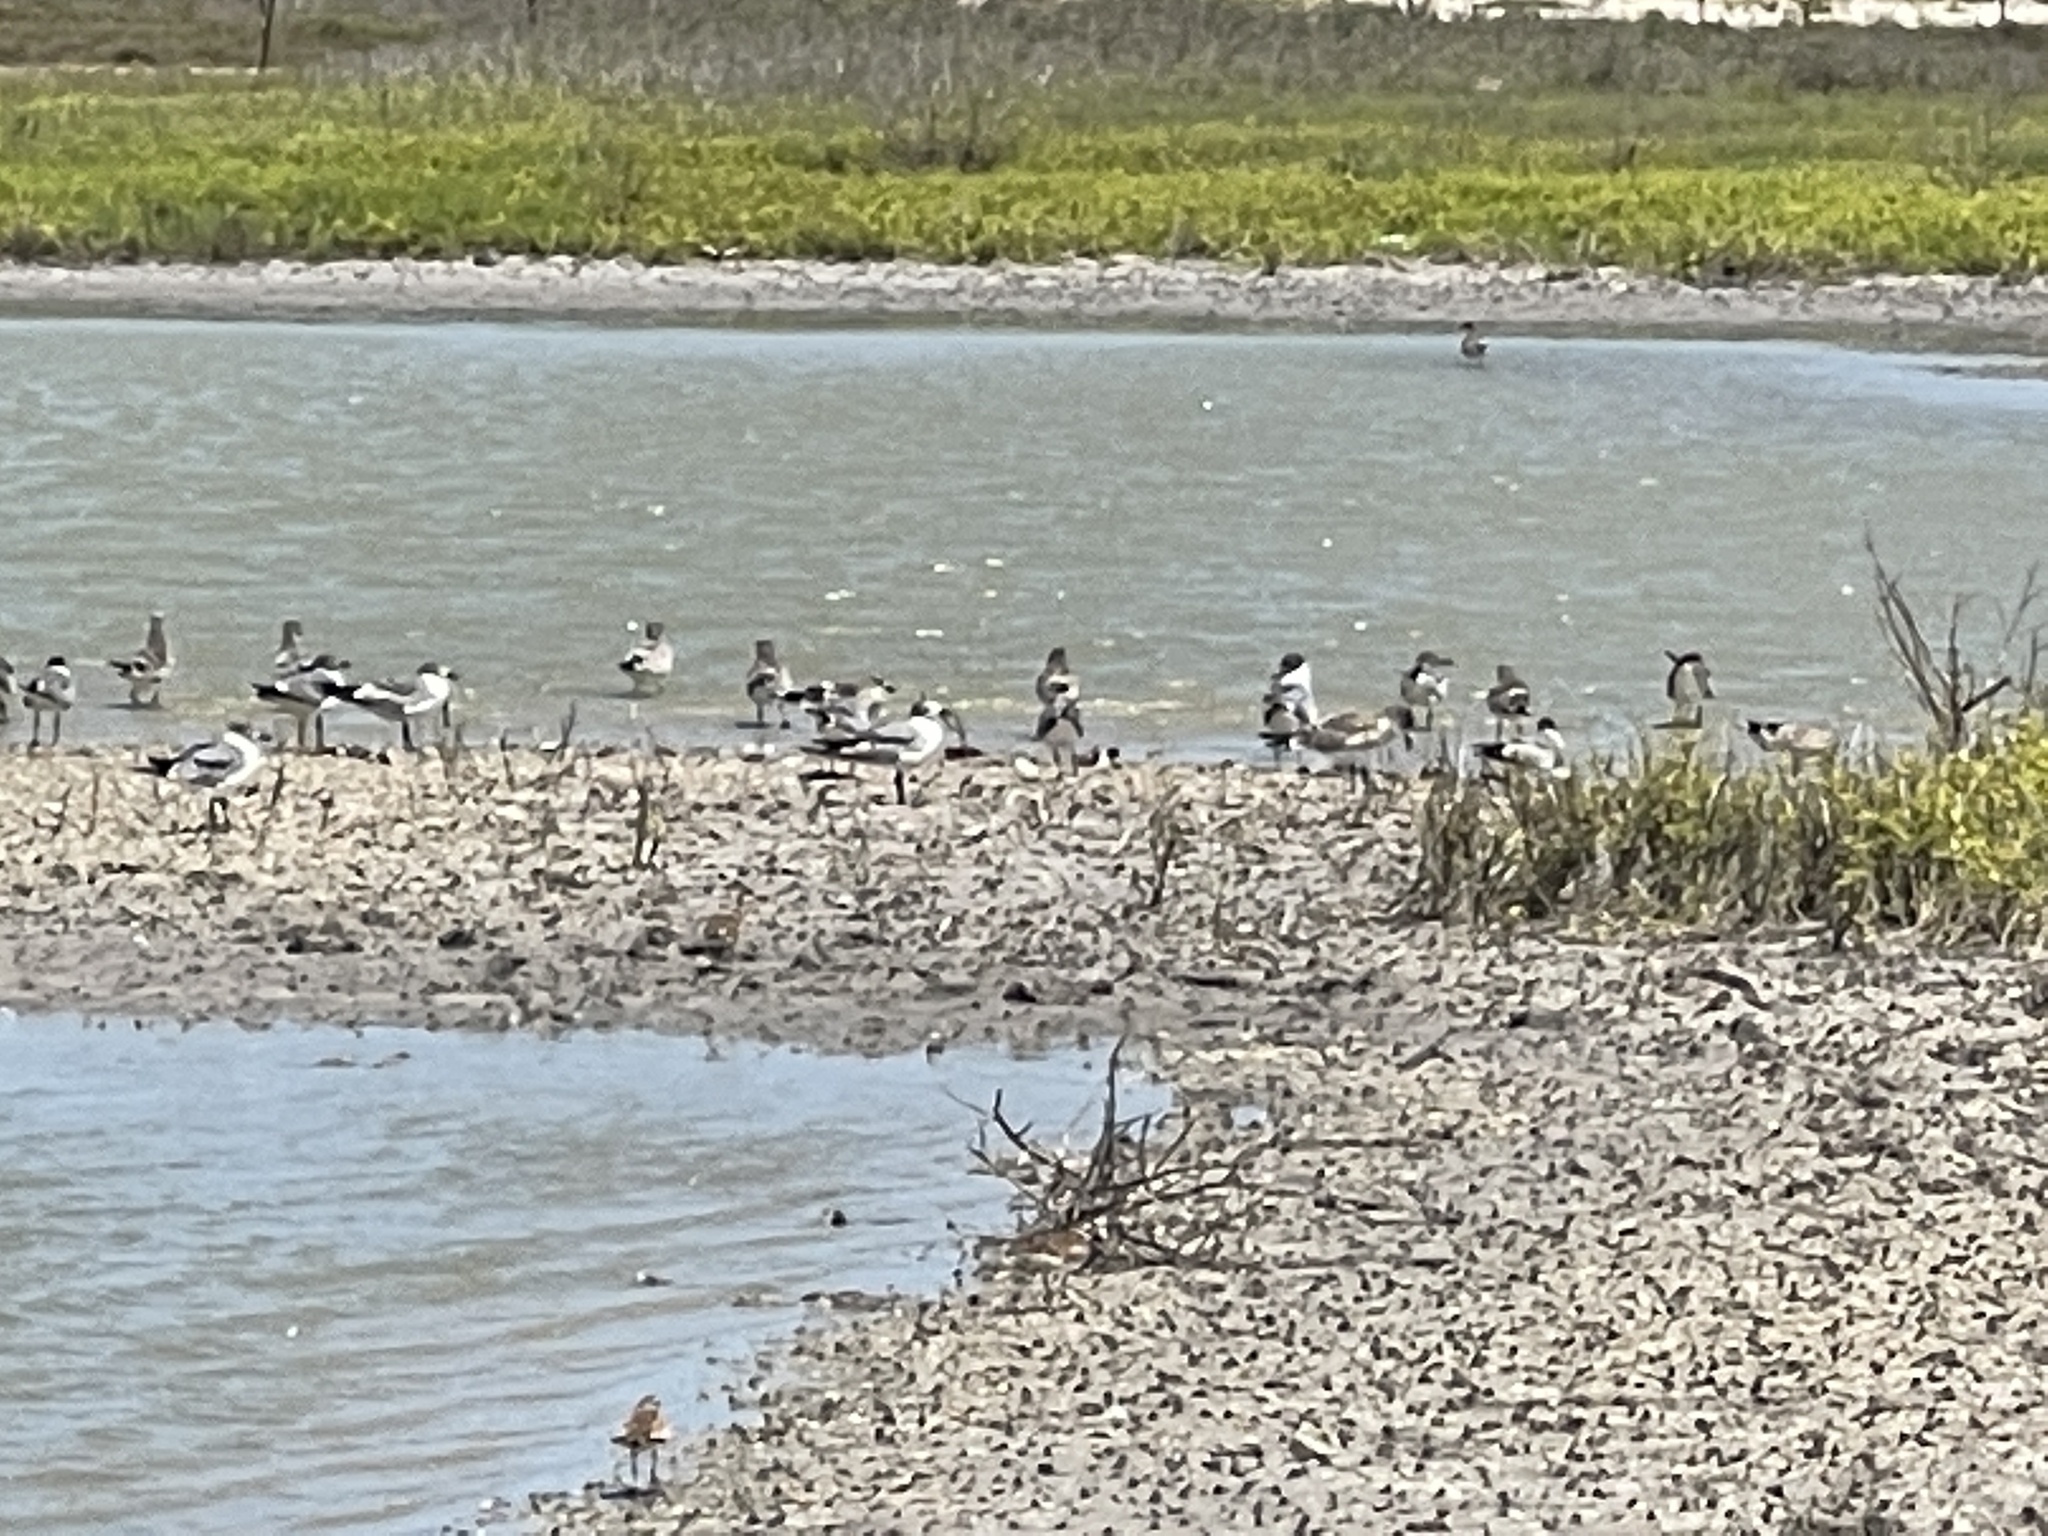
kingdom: Animalia
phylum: Chordata
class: Aves
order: Charadriiformes
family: Laridae
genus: Leucophaeus
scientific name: Leucophaeus atricilla
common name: Laughing gull
